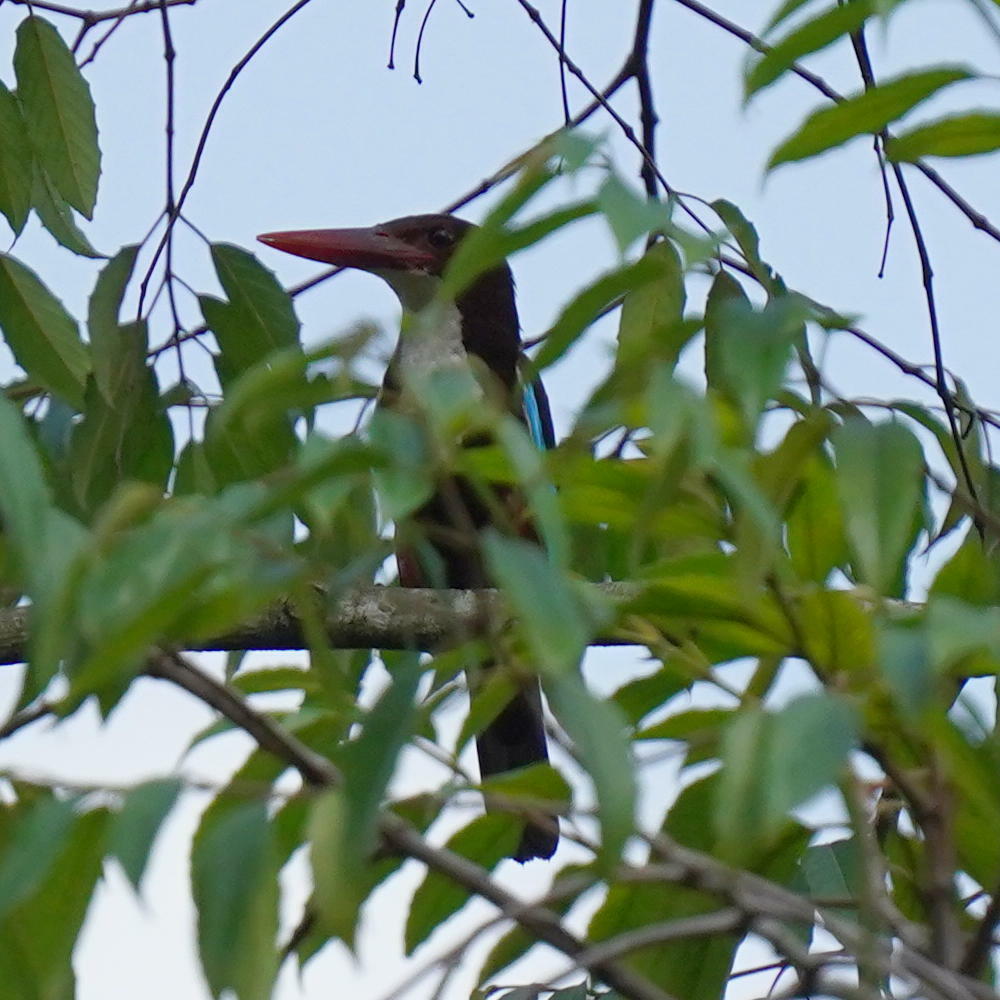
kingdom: Animalia
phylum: Chordata
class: Aves
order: Coraciiformes
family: Alcedinidae
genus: Halcyon
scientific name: Halcyon smyrnensis
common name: White-throated kingfisher
